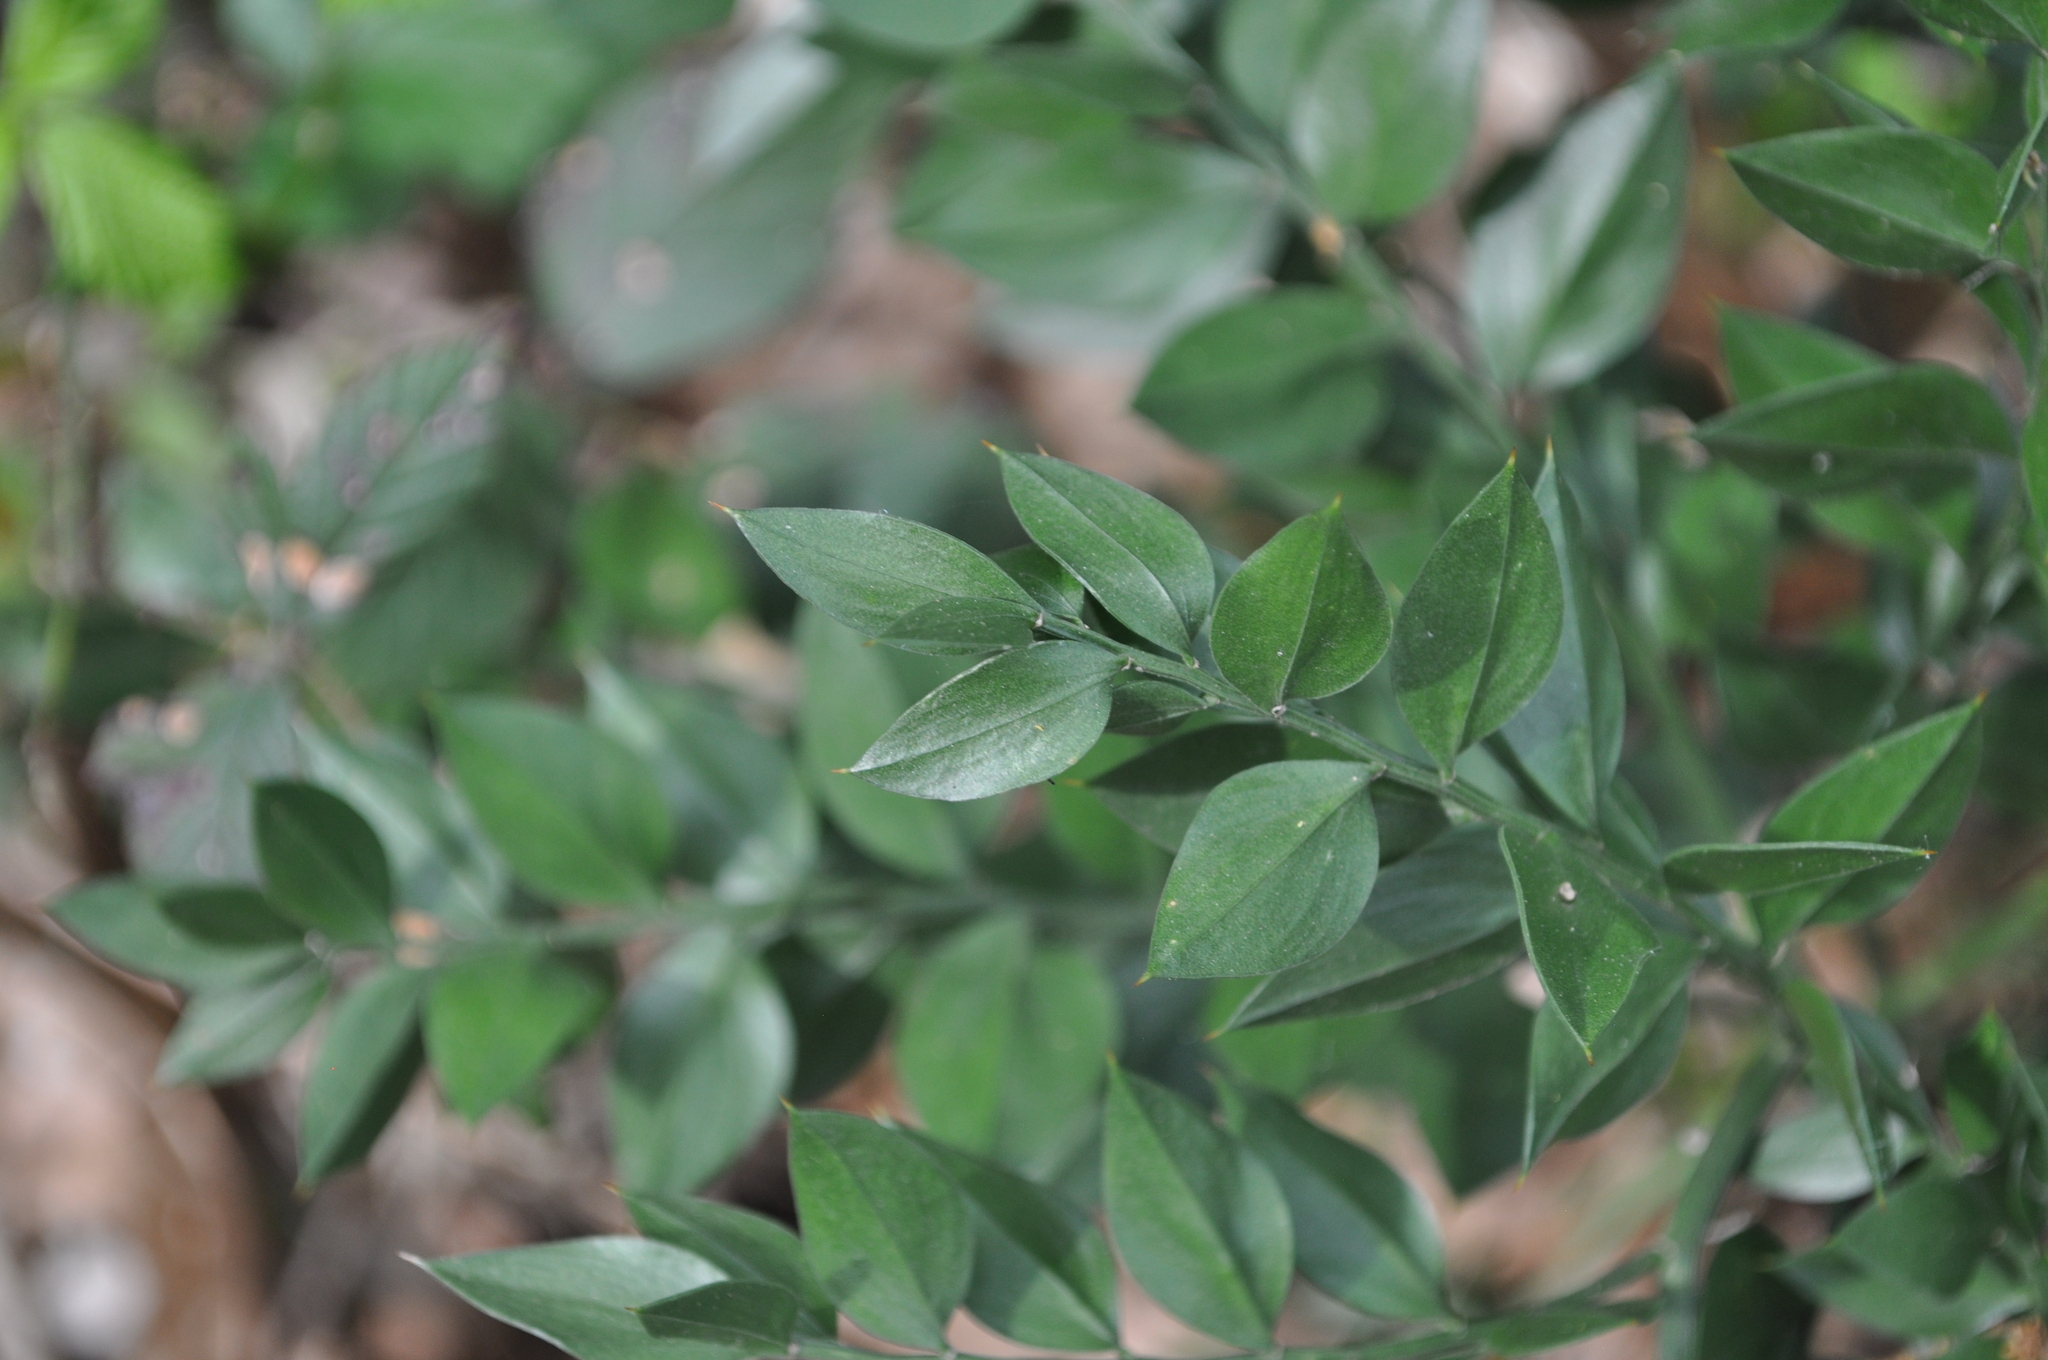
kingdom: Plantae
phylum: Tracheophyta
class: Liliopsida
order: Asparagales
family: Asparagaceae
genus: Ruscus
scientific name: Ruscus aculeatus
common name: Butcher's-broom
